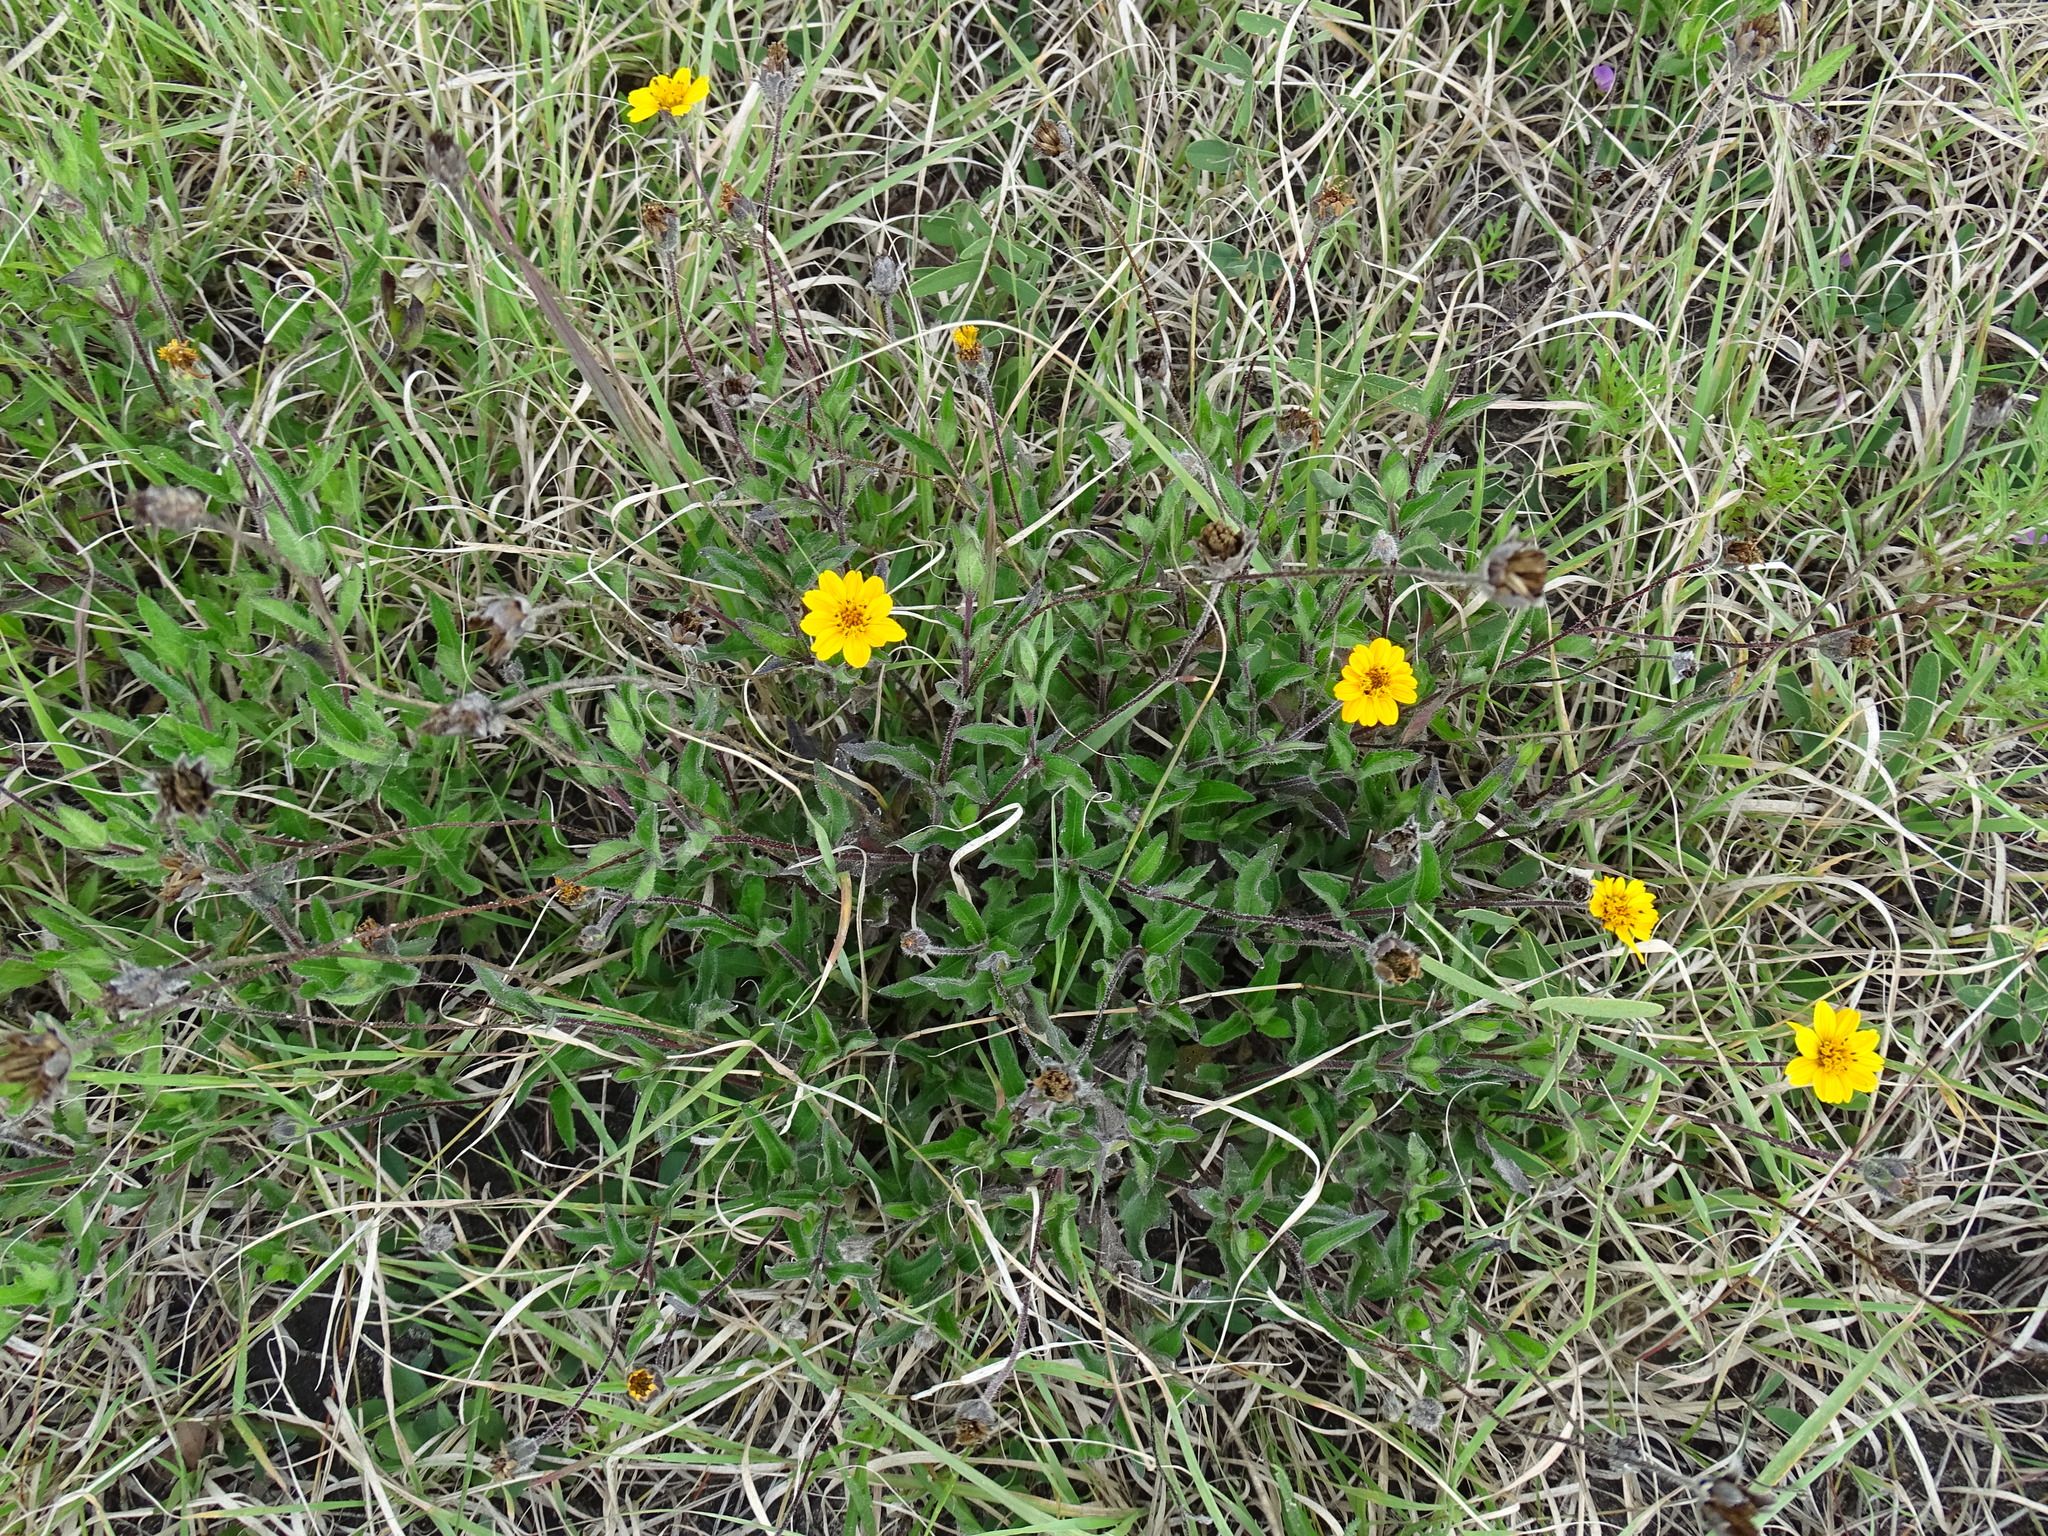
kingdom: Plantae
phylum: Tracheophyta
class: Magnoliopsida
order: Asterales
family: Asteraceae
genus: Wedelia
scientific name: Wedelia acapulcensis
